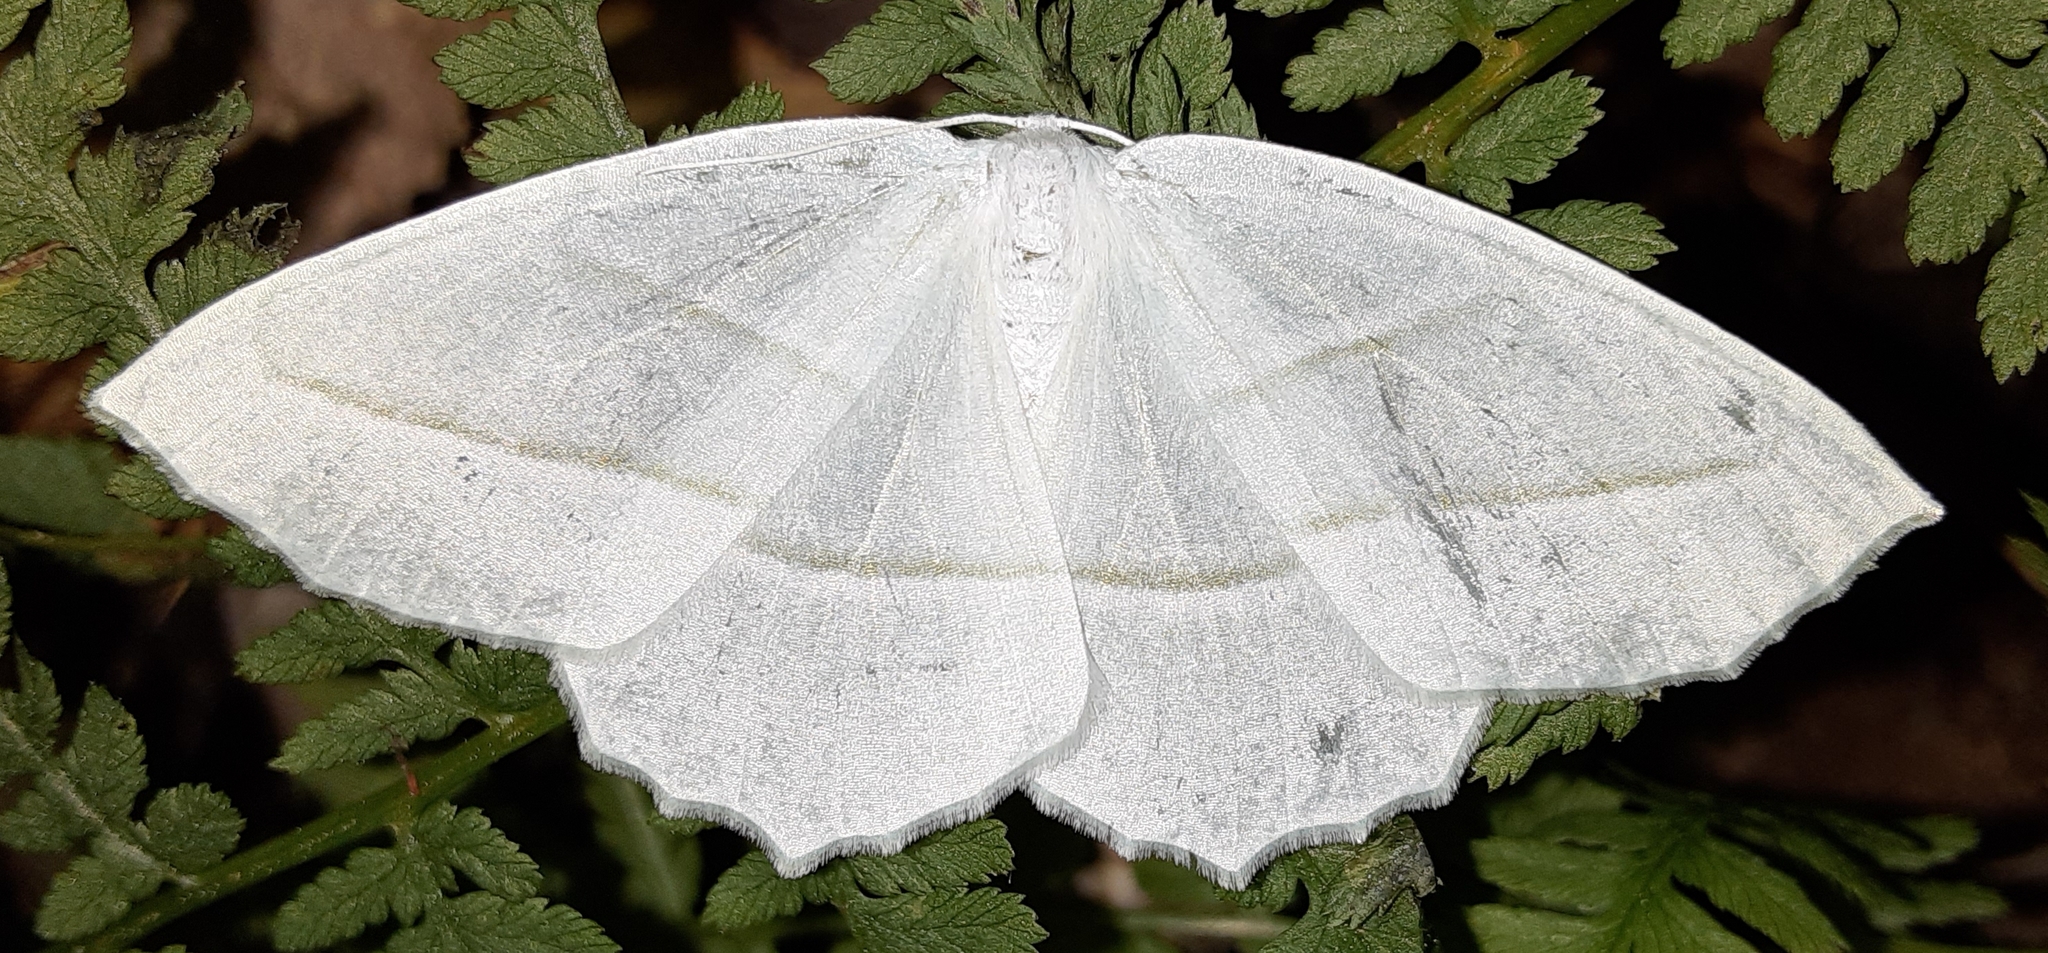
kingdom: Animalia
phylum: Arthropoda
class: Insecta
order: Lepidoptera
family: Geometridae
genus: Campaea
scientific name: Campaea perlata
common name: Fringed looper
